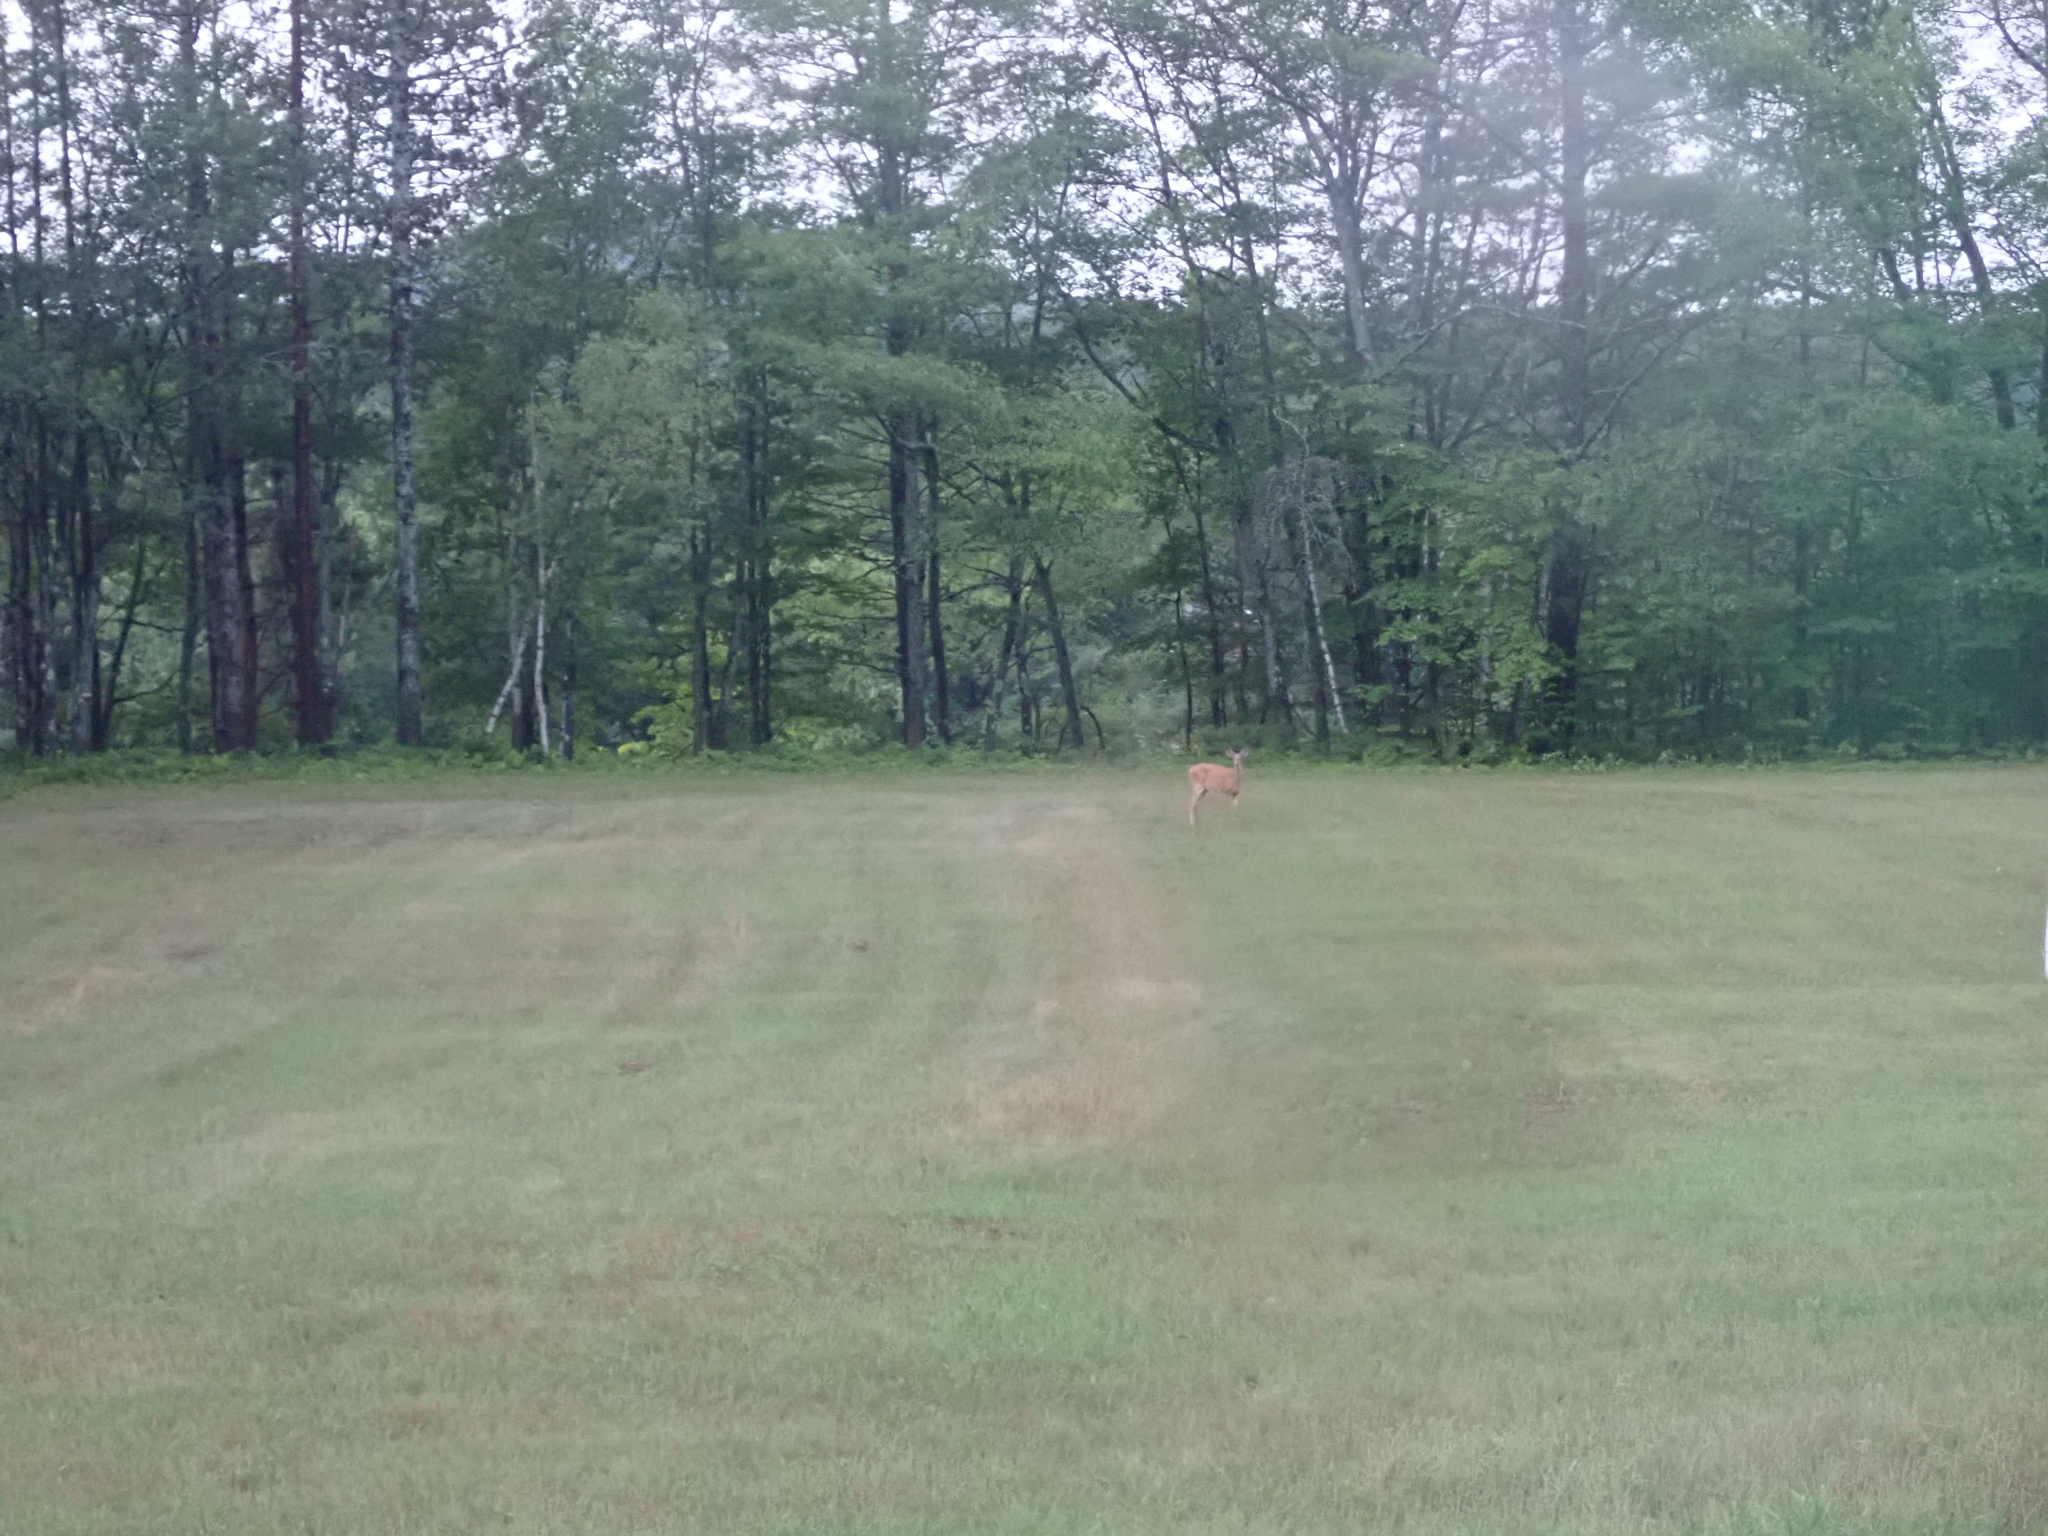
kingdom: Animalia
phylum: Chordata
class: Mammalia
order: Artiodactyla
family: Cervidae
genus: Odocoileus
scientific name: Odocoileus virginianus
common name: White-tailed deer
